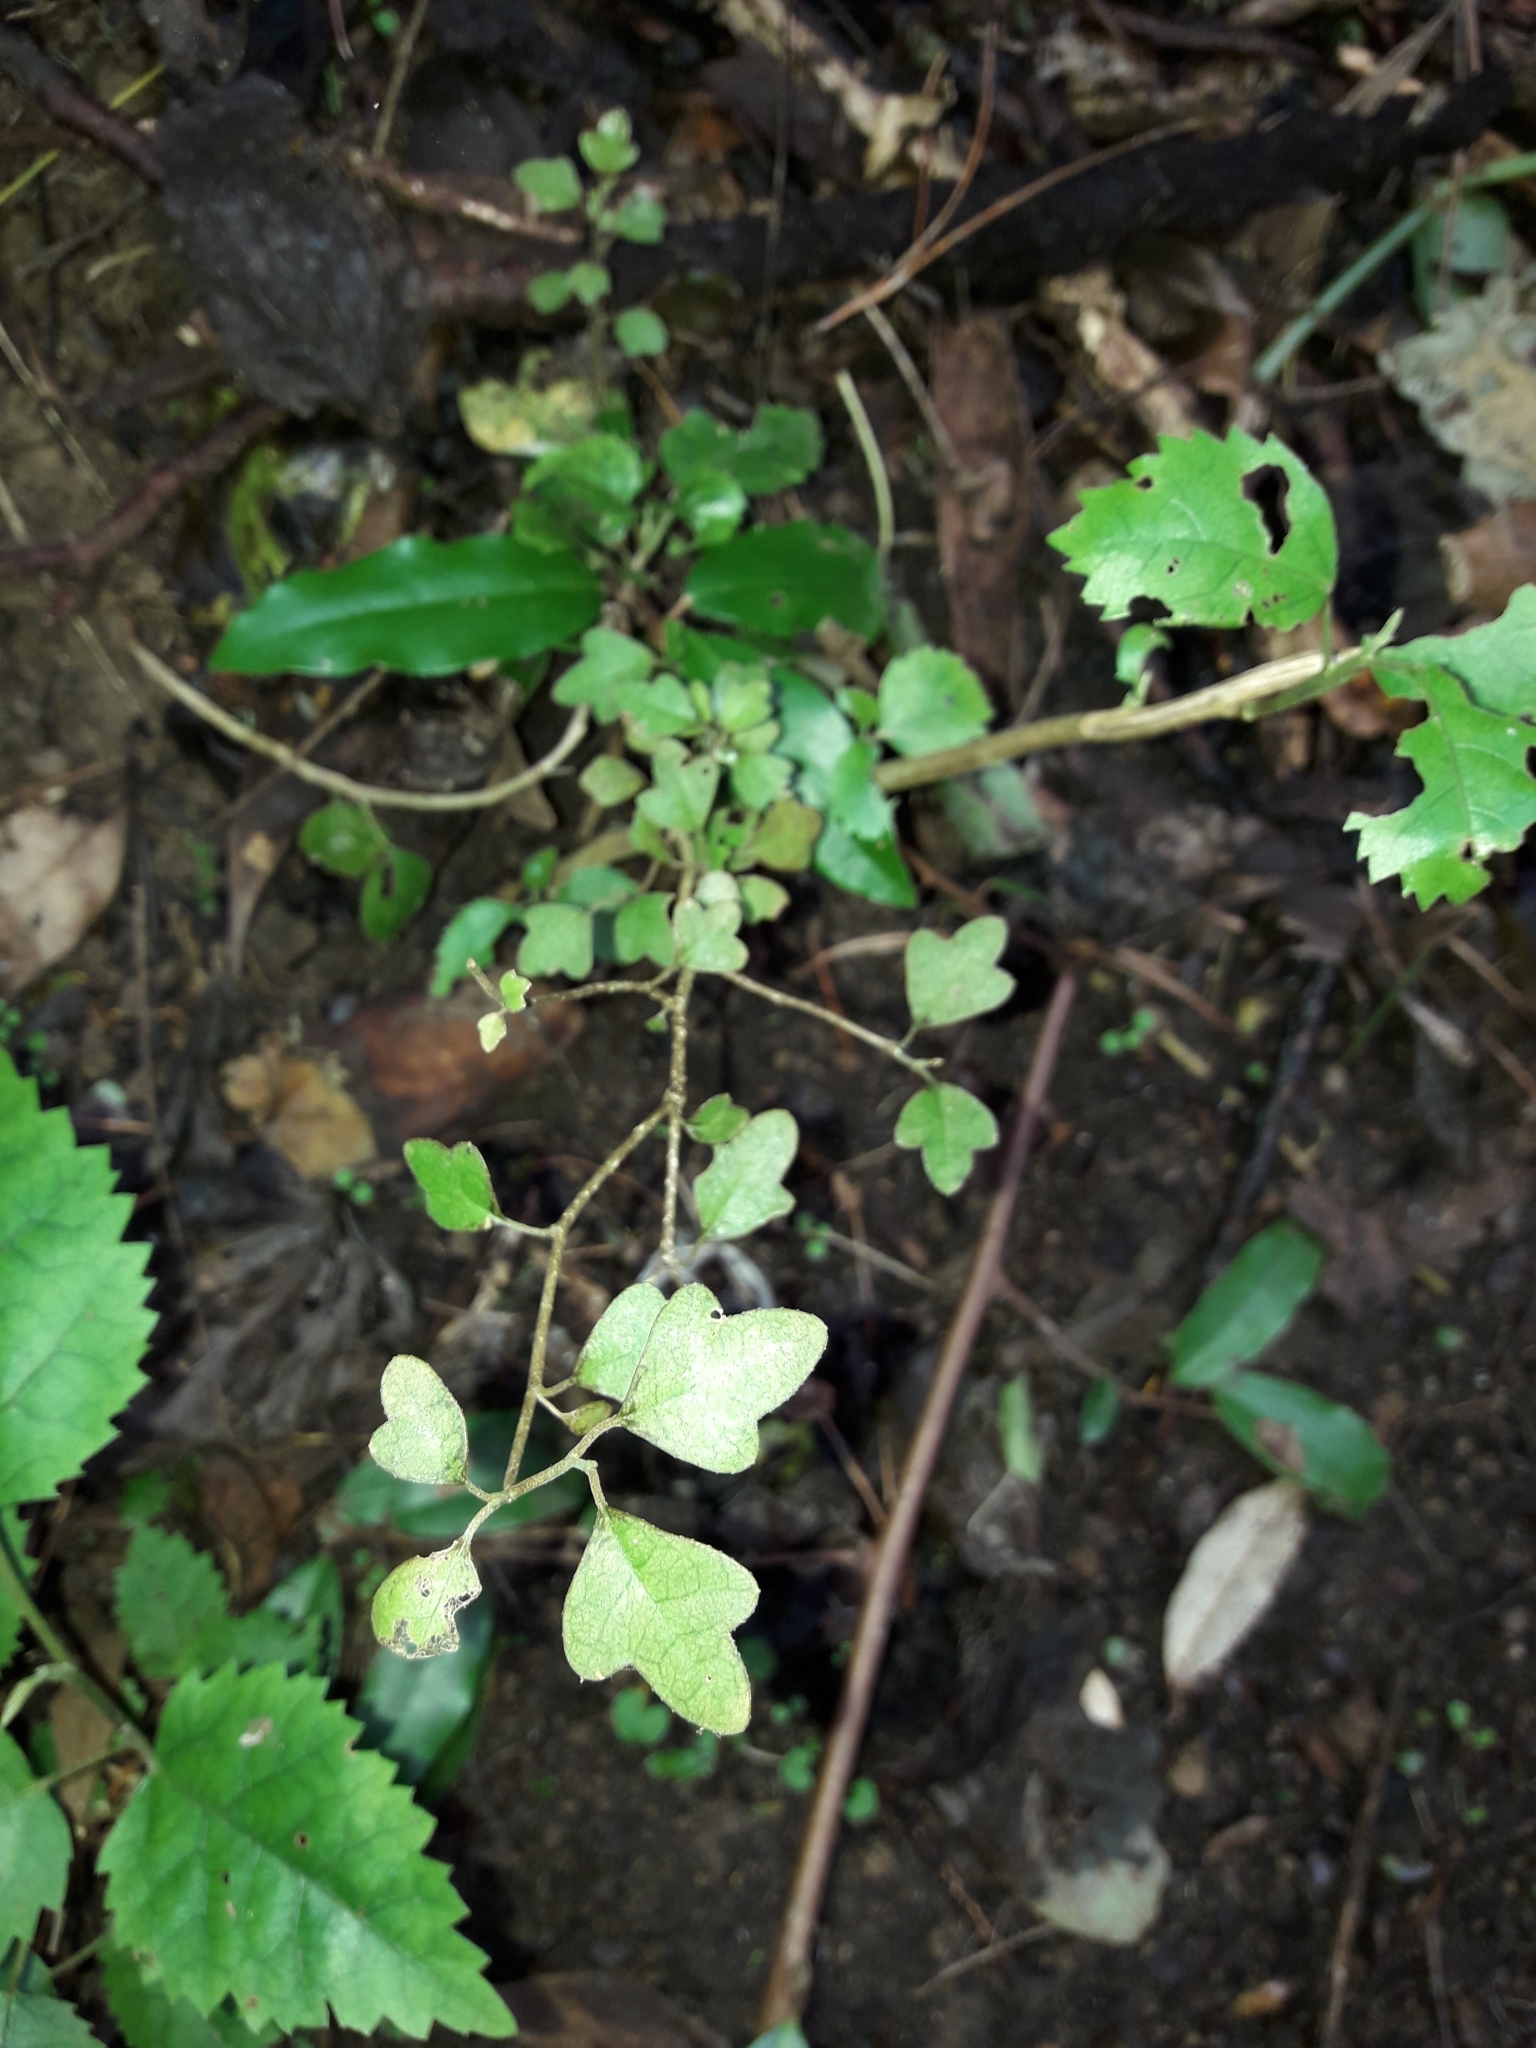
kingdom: Plantae
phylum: Tracheophyta
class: Magnoliopsida
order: Apiales
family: Pennantiaceae
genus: Pennantia
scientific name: Pennantia corymbosa
